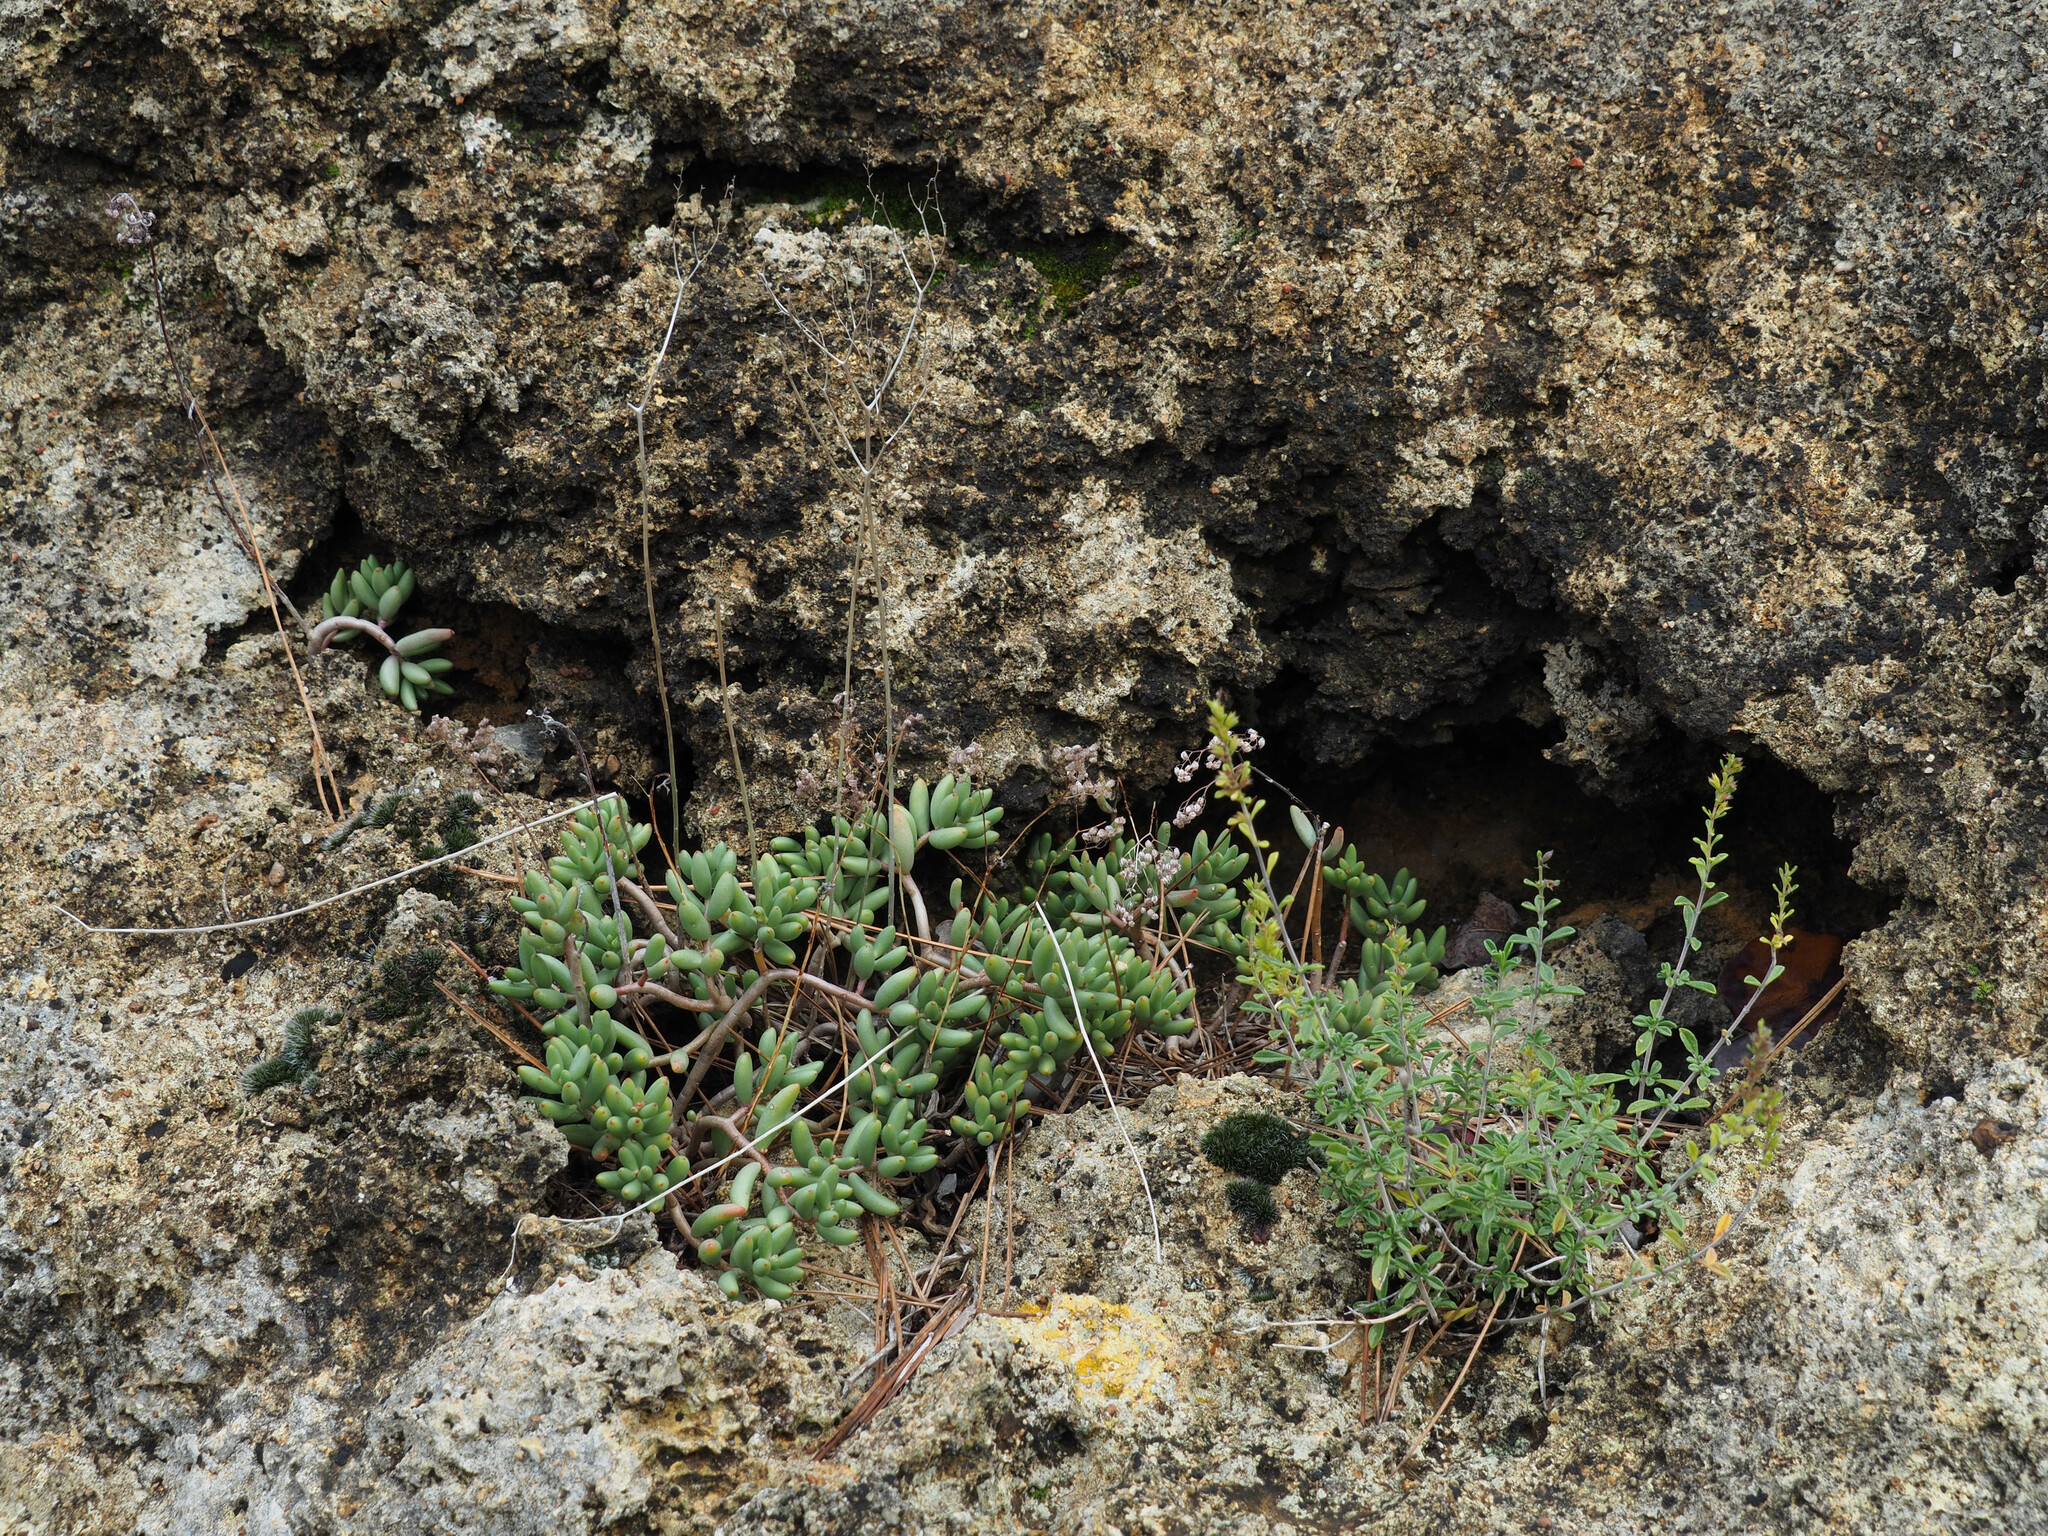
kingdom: Plantae
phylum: Tracheophyta
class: Magnoliopsida
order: Saxifragales
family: Crassulaceae
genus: Sedum
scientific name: Sedum album
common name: White stonecrop
